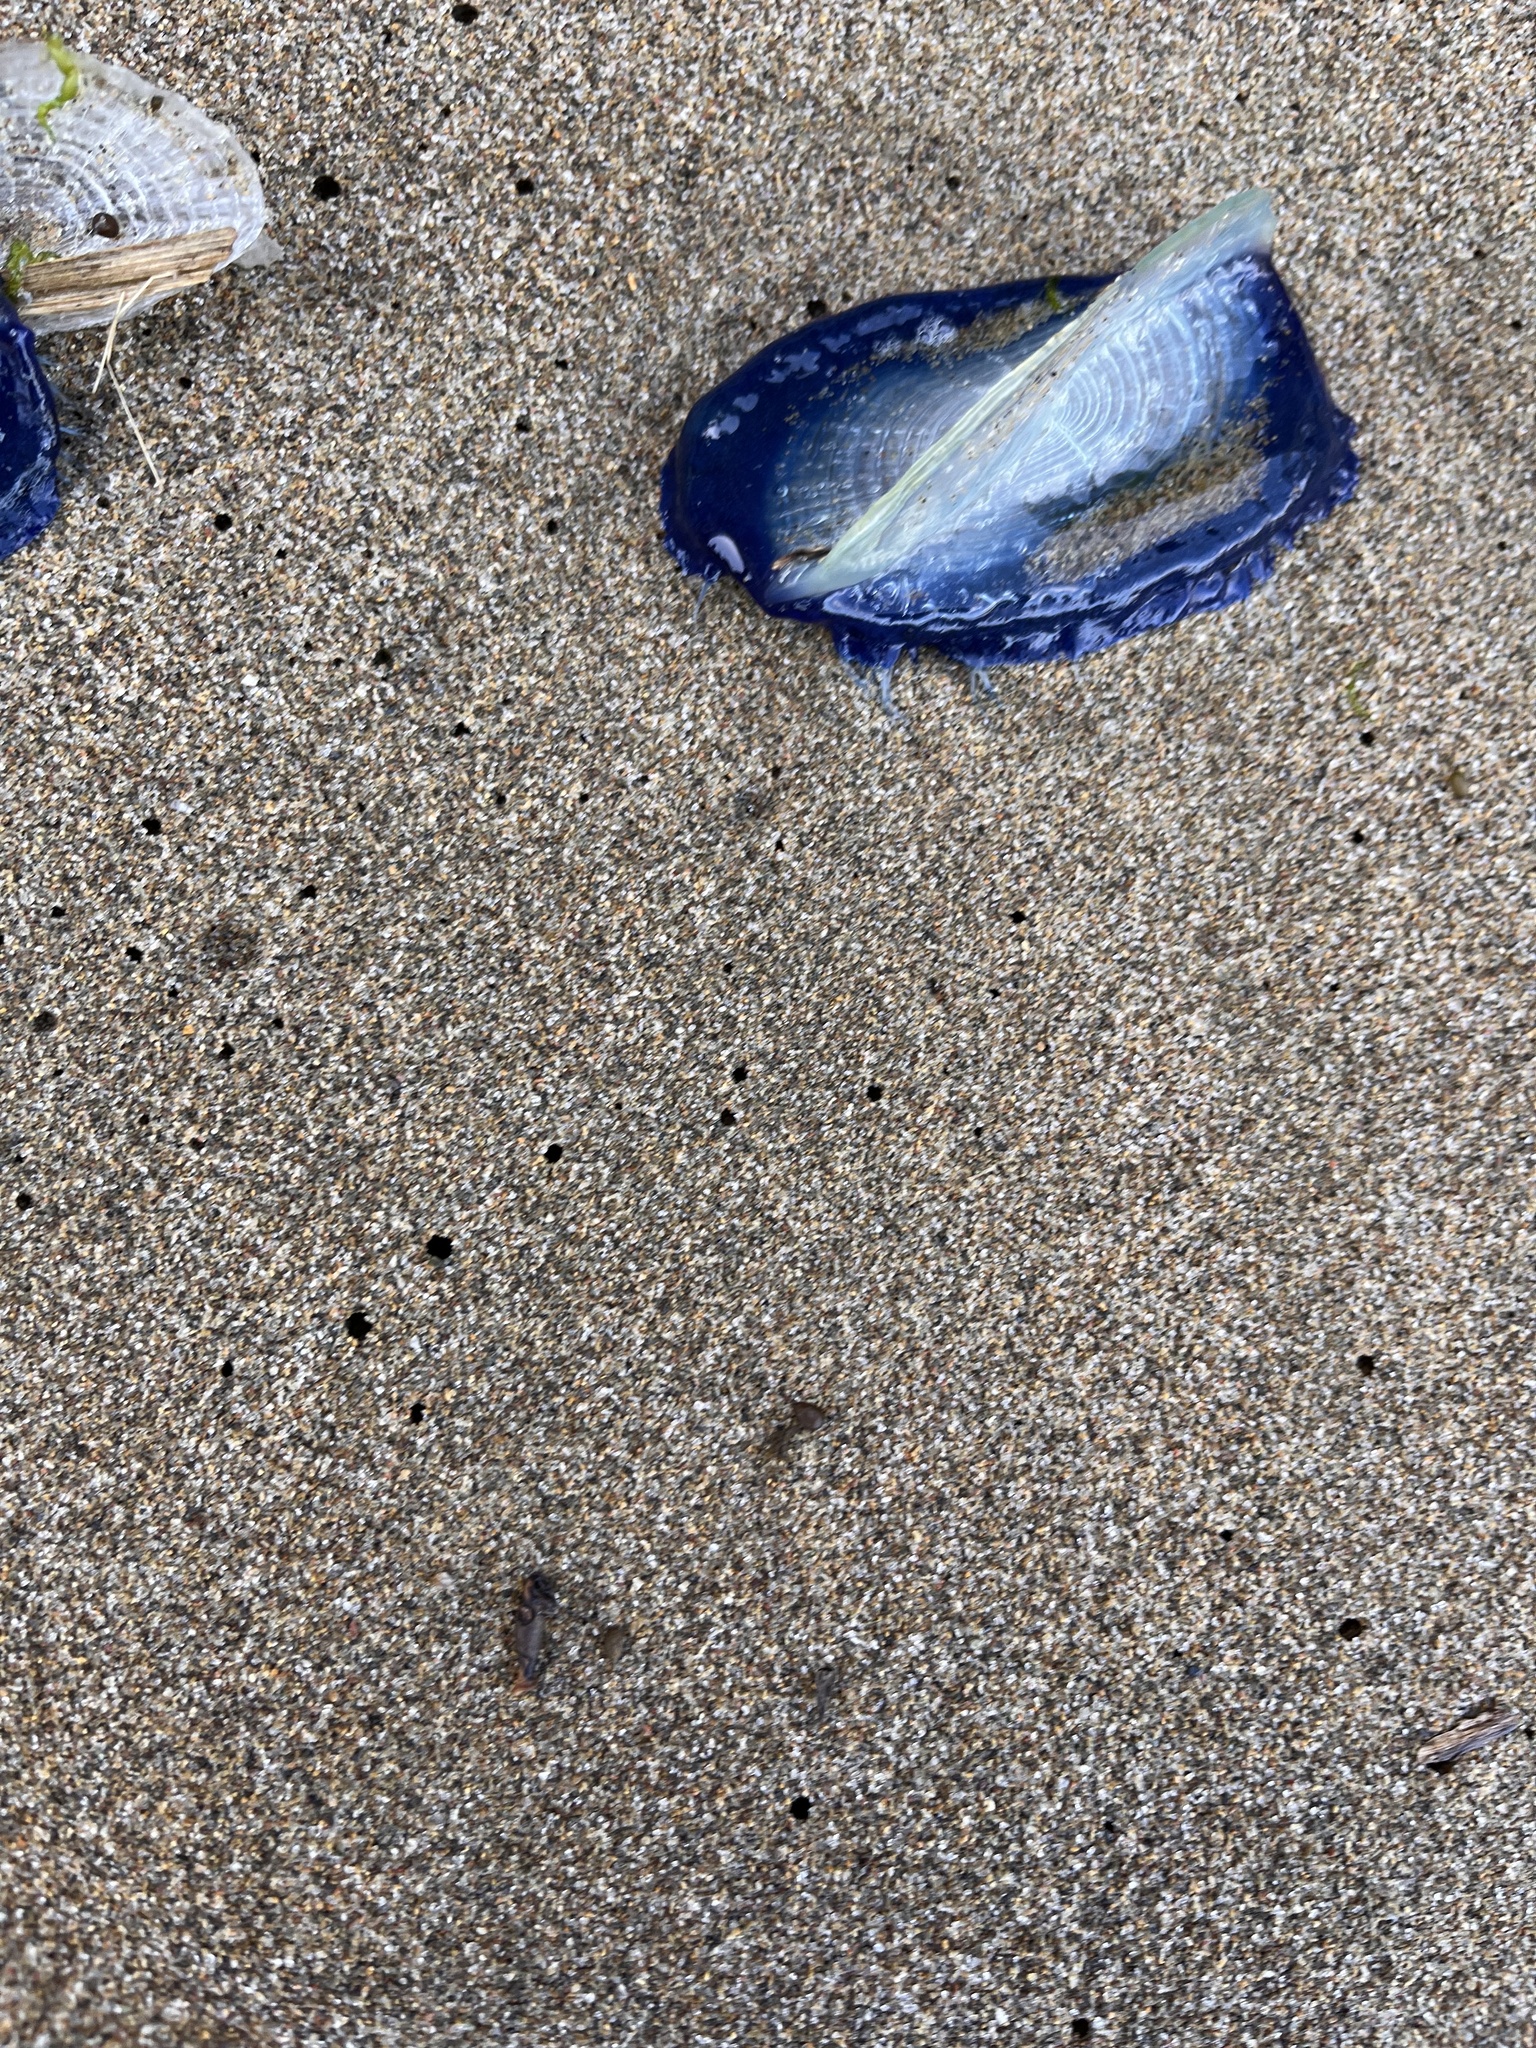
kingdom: Animalia
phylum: Cnidaria
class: Hydrozoa
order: Anthoathecata
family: Porpitidae
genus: Velella
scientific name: Velella velella
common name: By-the-wind-sailor
